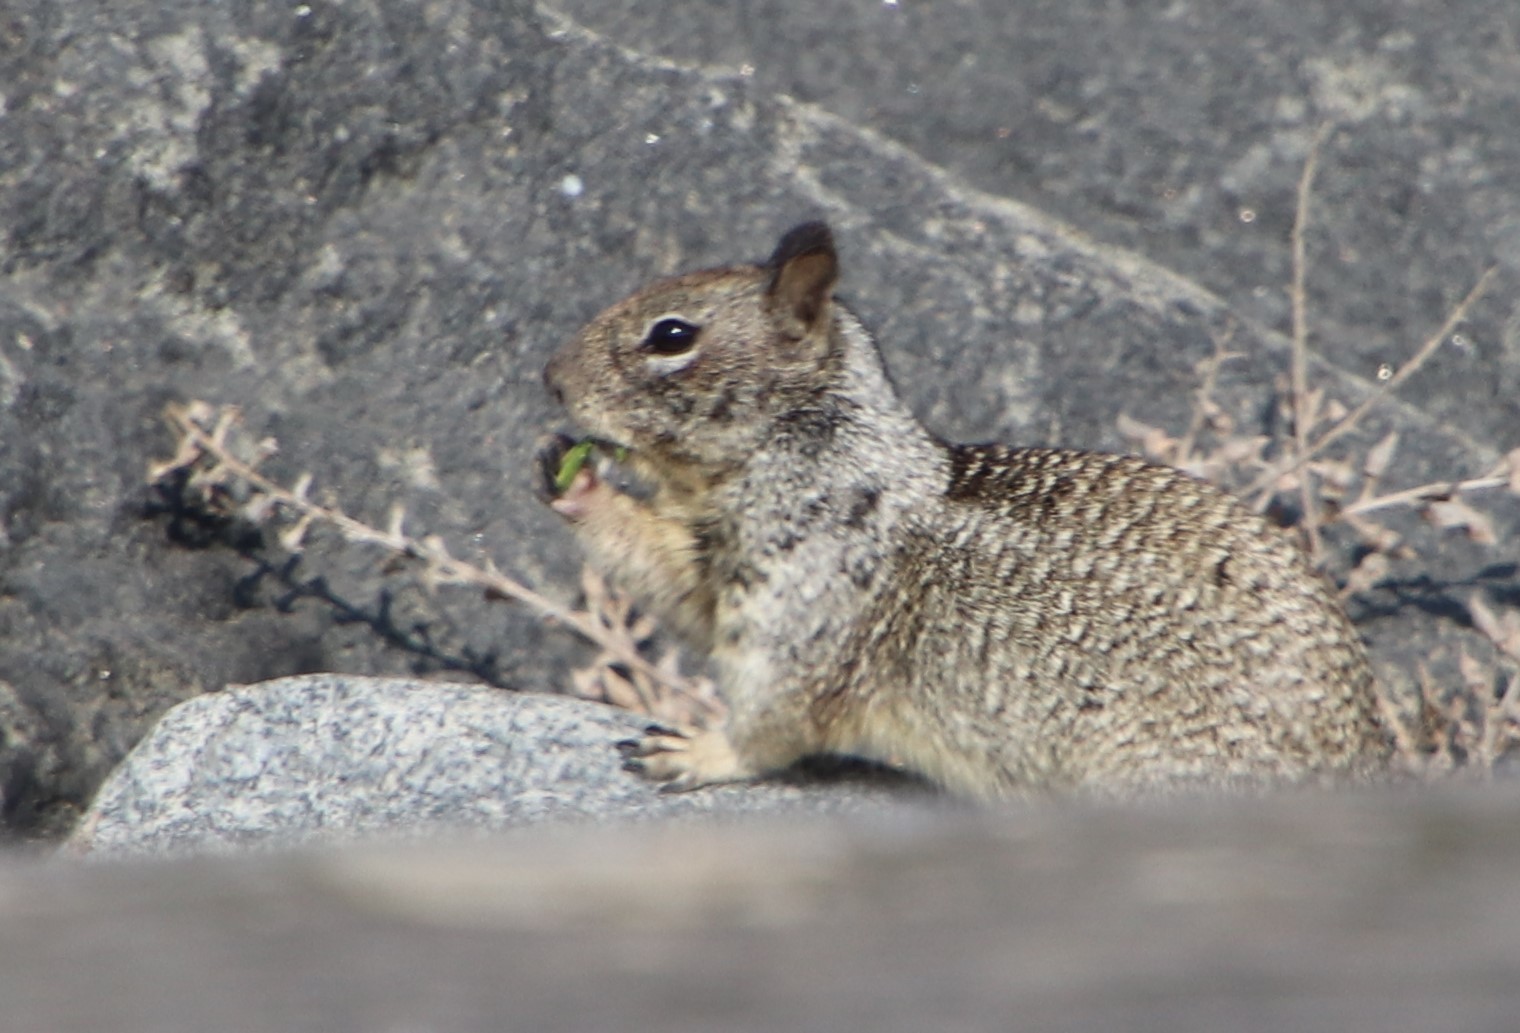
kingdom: Animalia
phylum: Chordata
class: Mammalia
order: Rodentia
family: Sciuridae
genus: Otospermophilus
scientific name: Otospermophilus beecheyi
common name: California ground squirrel
